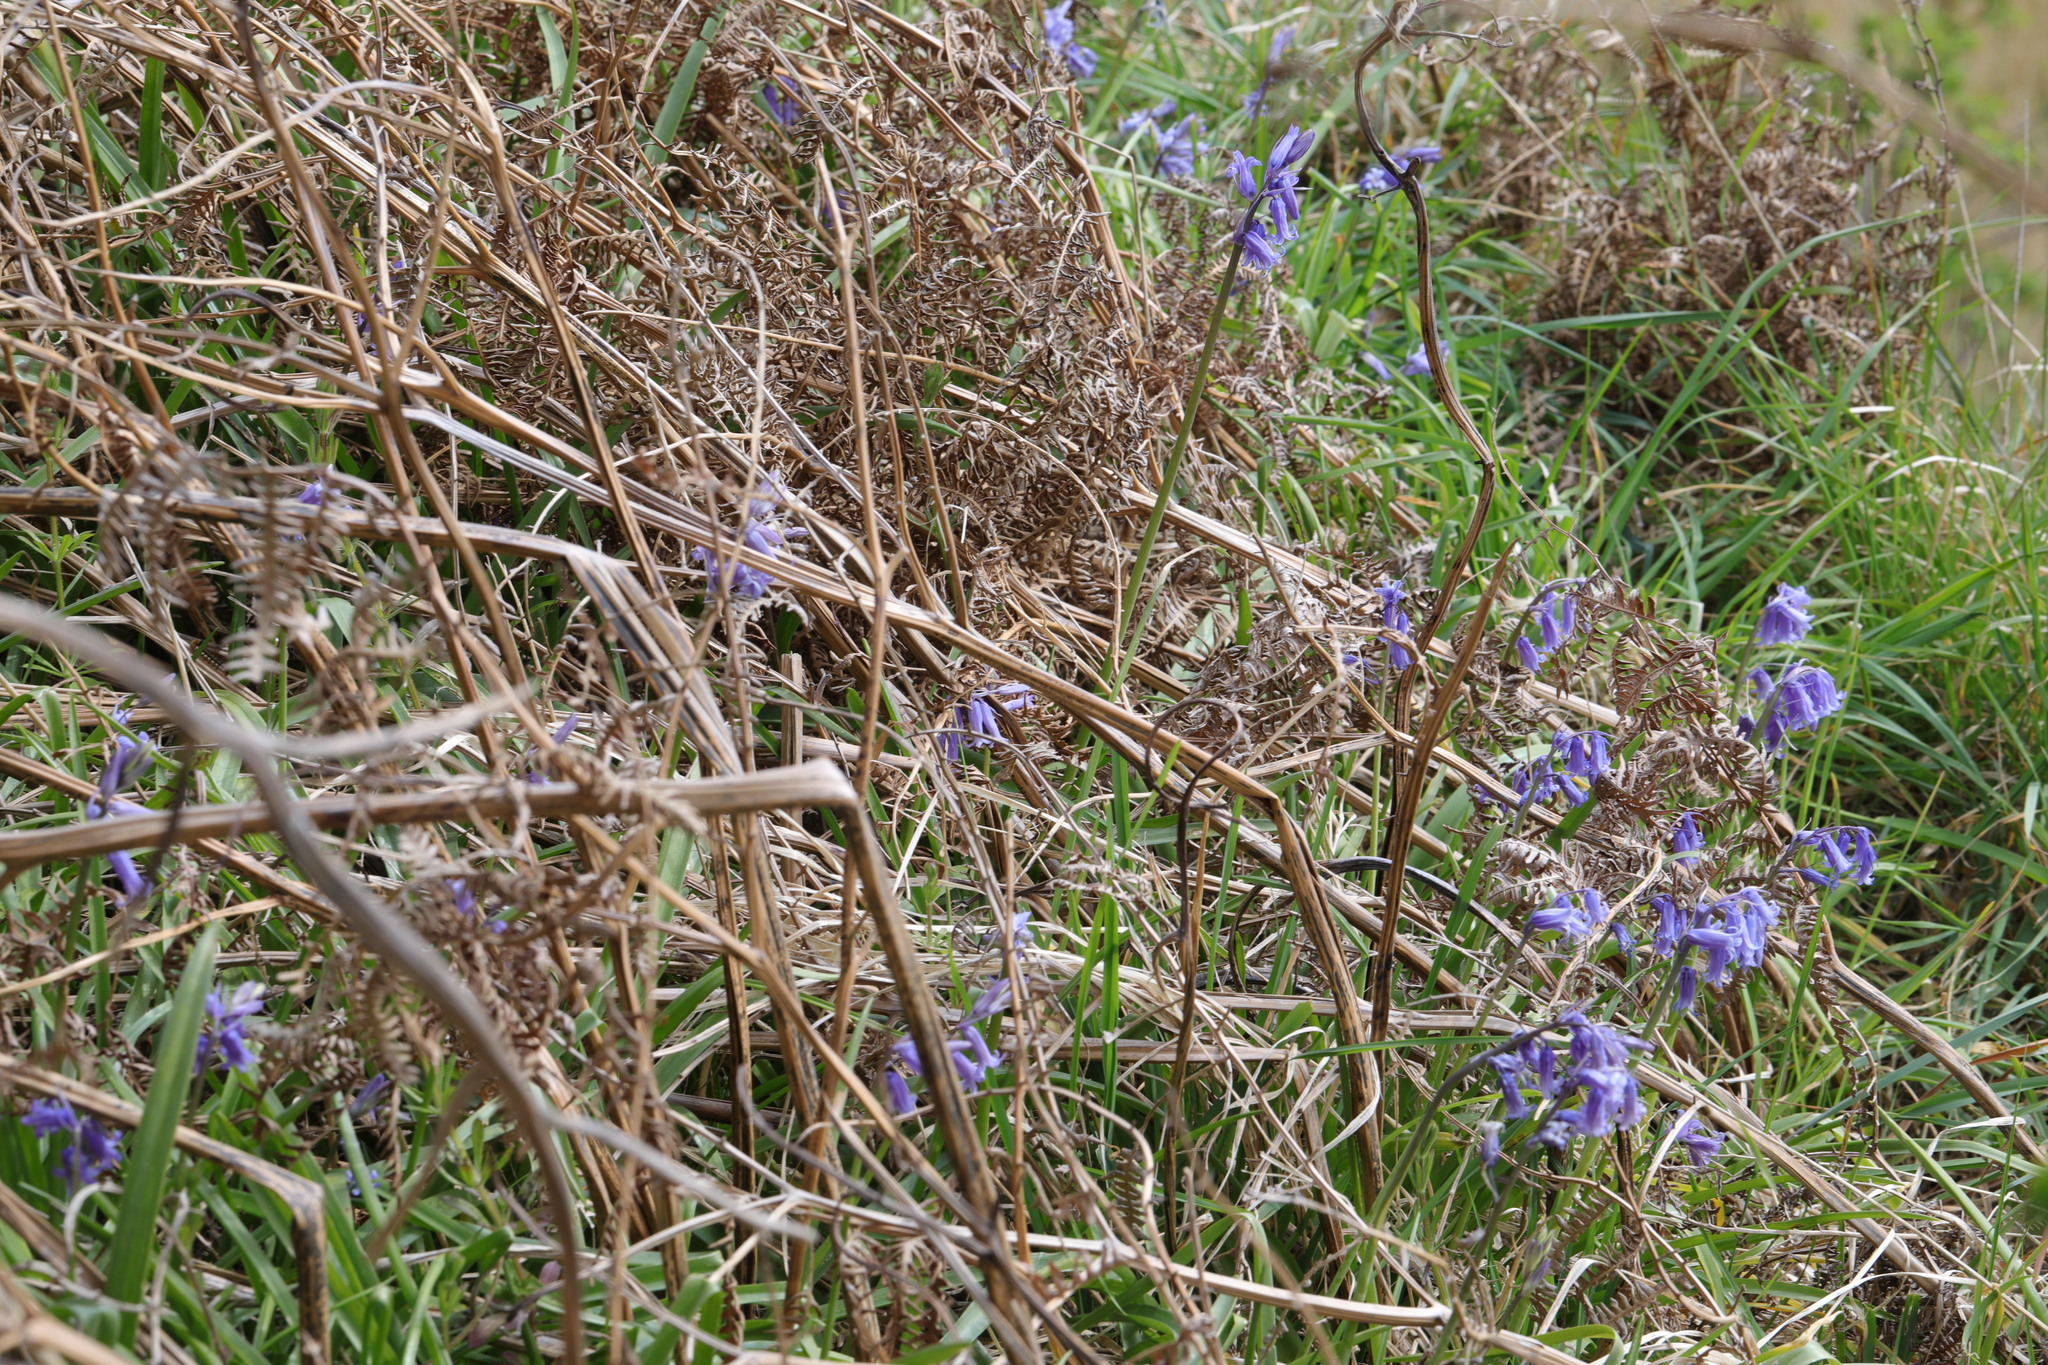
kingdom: Plantae
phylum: Tracheophyta
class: Liliopsida
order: Asparagales
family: Asparagaceae
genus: Hyacinthoides
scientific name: Hyacinthoides non-scripta
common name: Bluebell
